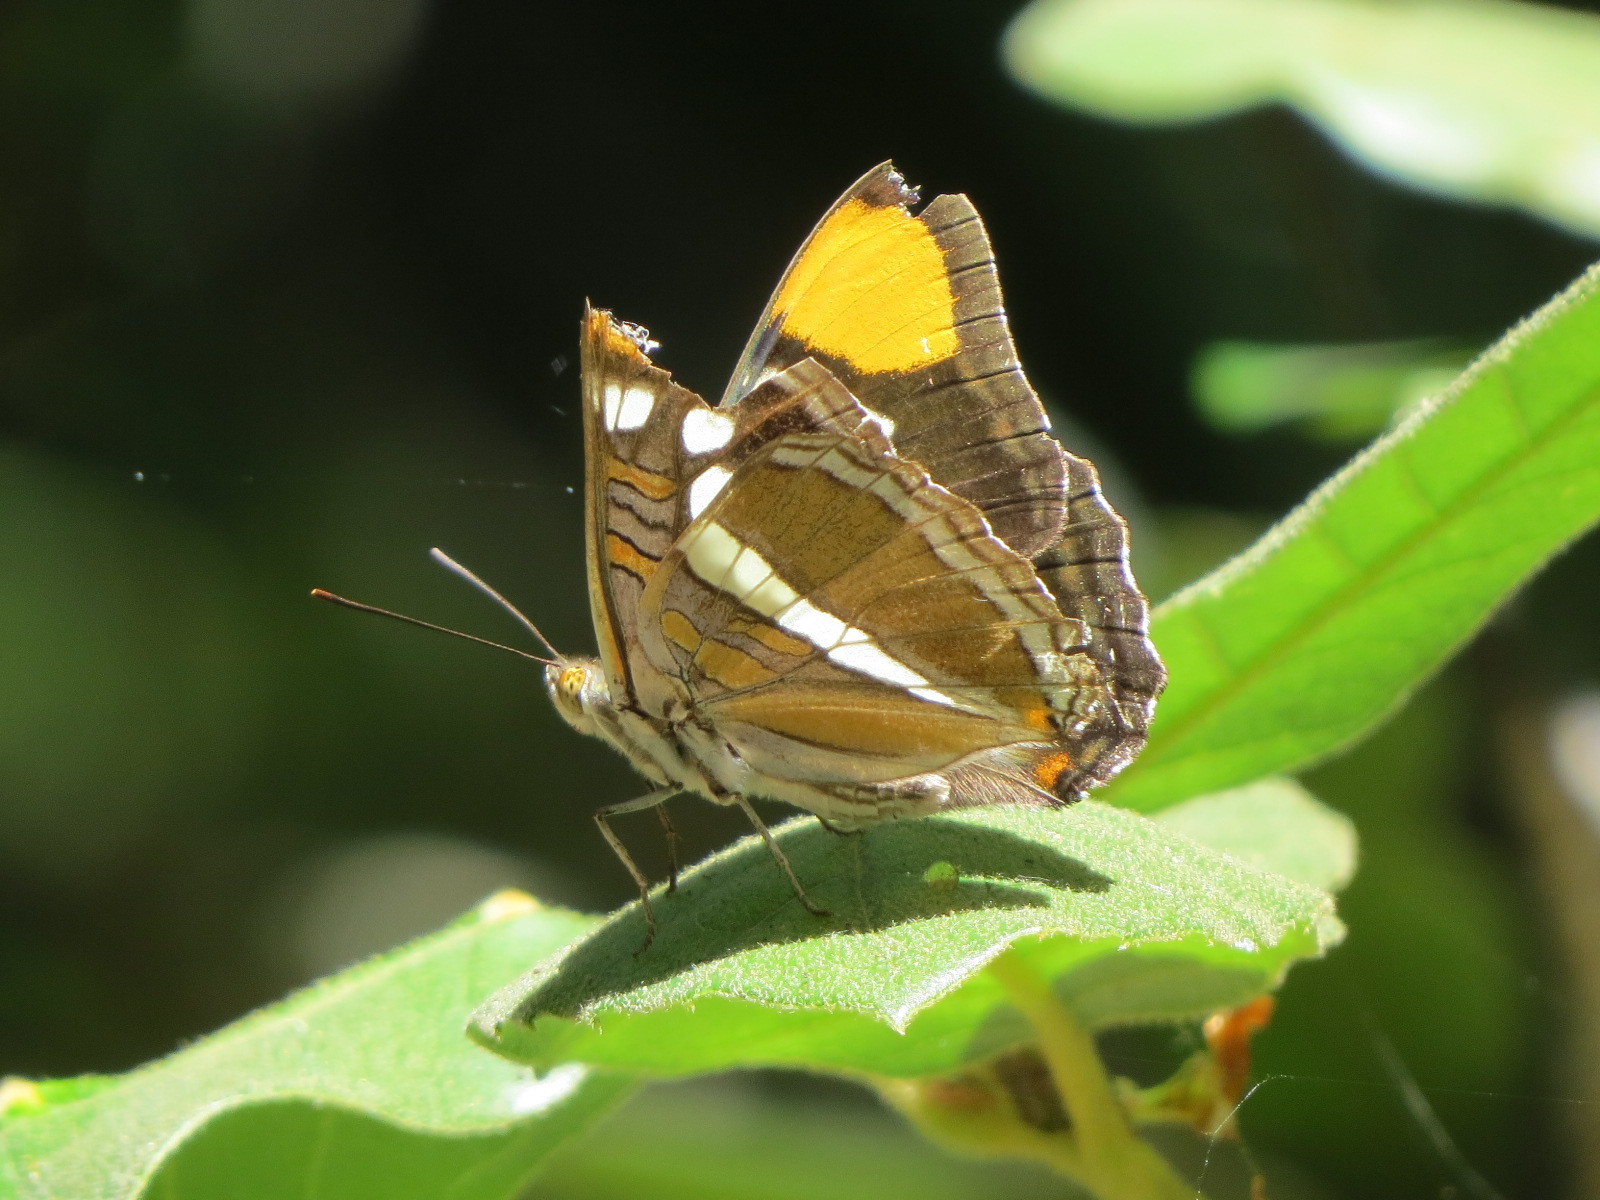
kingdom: Animalia
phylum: Arthropoda
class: Insecta
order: Lepidoptera
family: Nymphalidae
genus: Limenitis
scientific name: Limenitis bredowii
